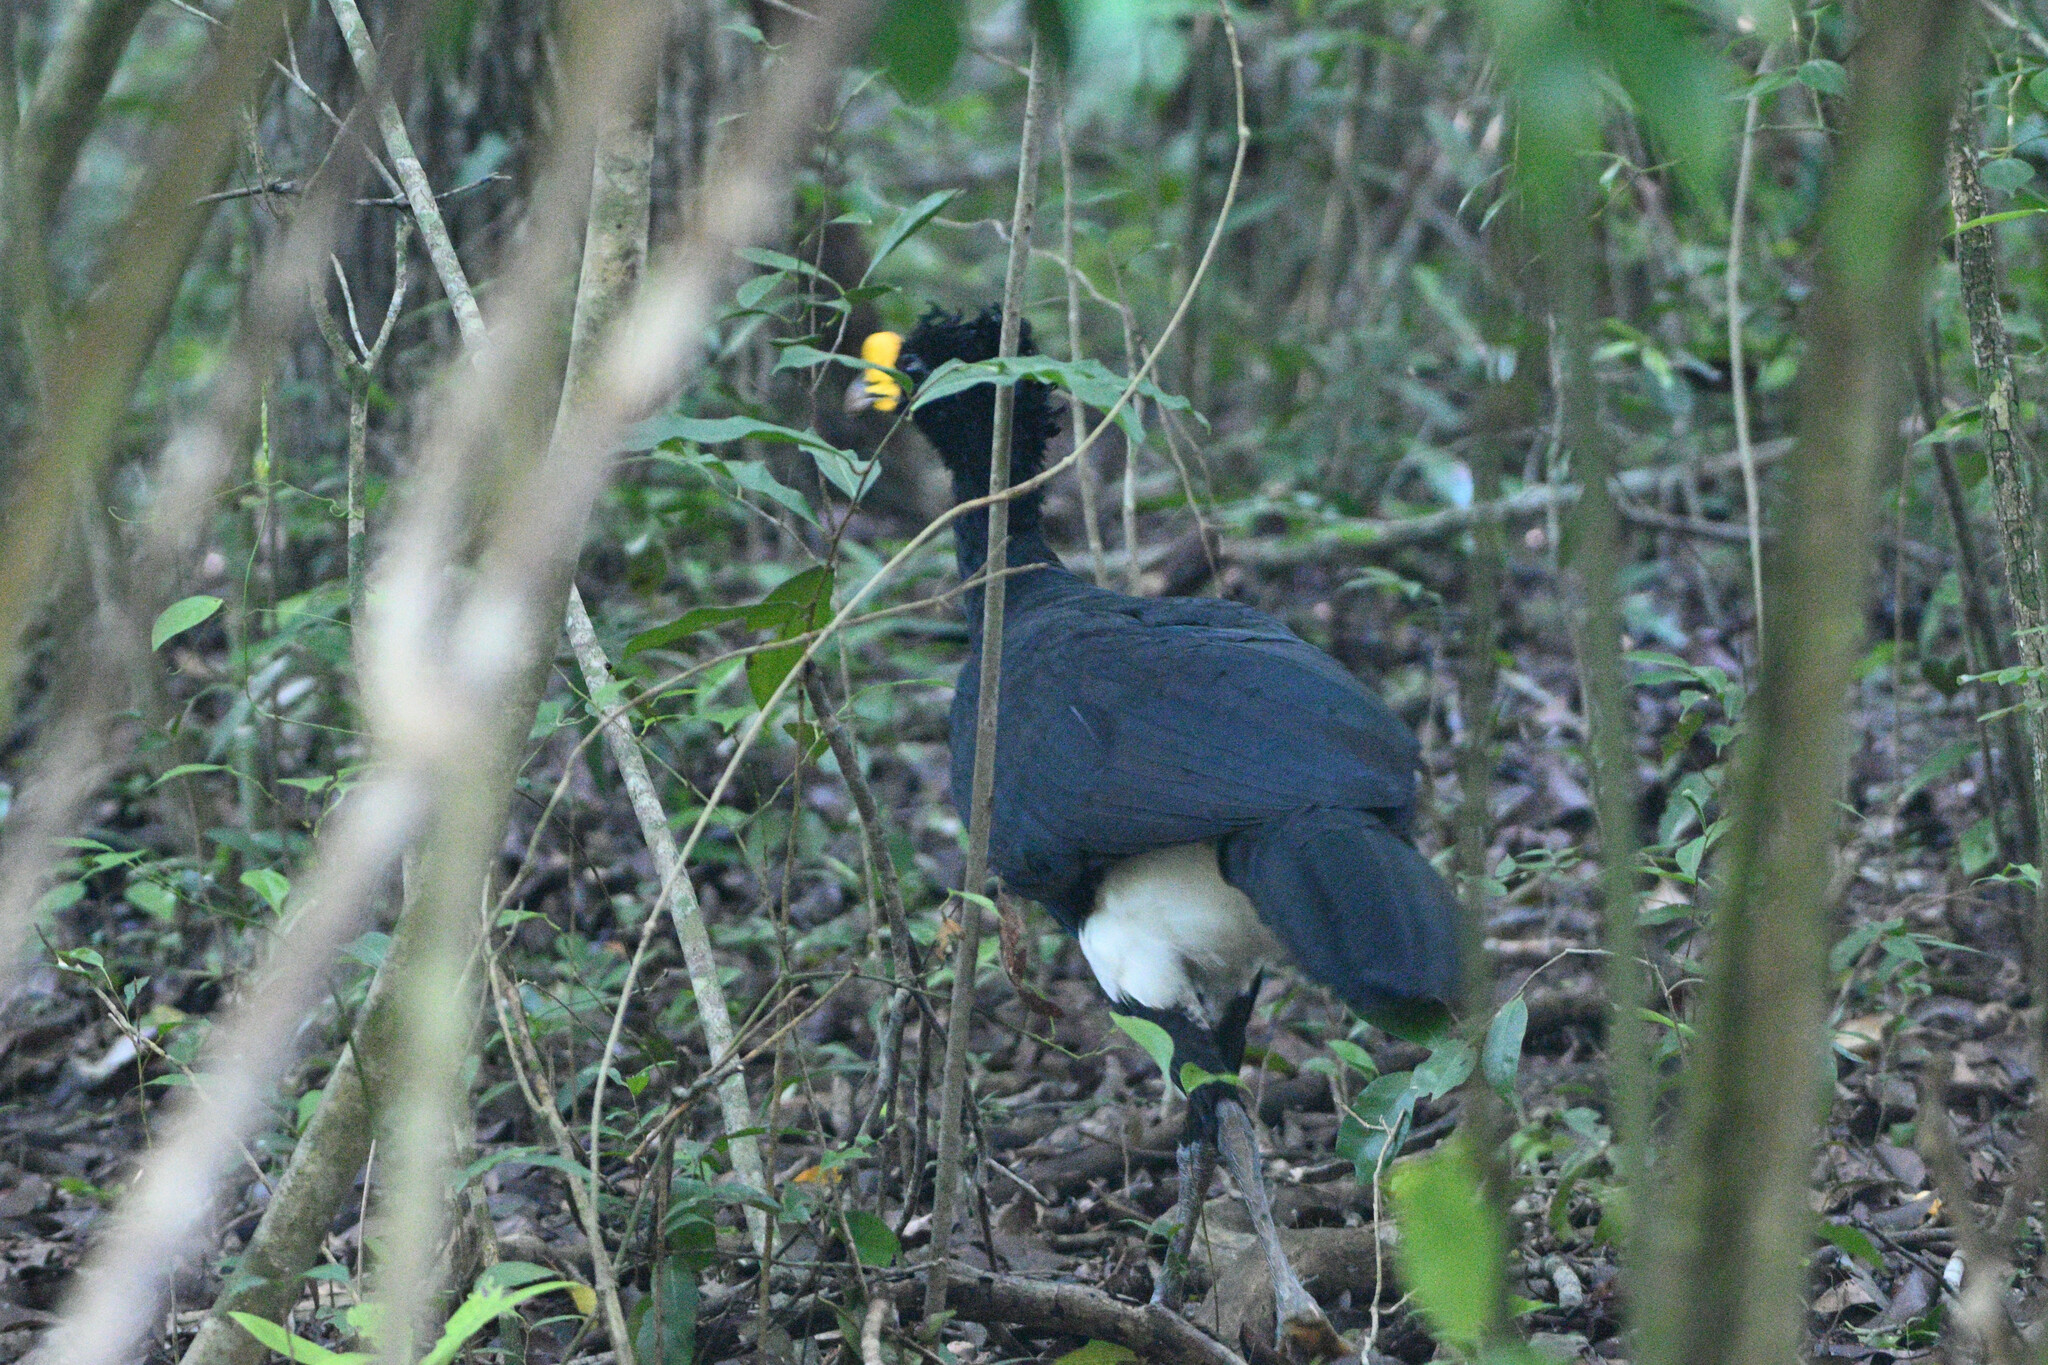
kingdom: Animalia
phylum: Chordata
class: Aves
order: Galliformes
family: Cracidae
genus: Crax
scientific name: Crax rubra
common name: Great curassow
